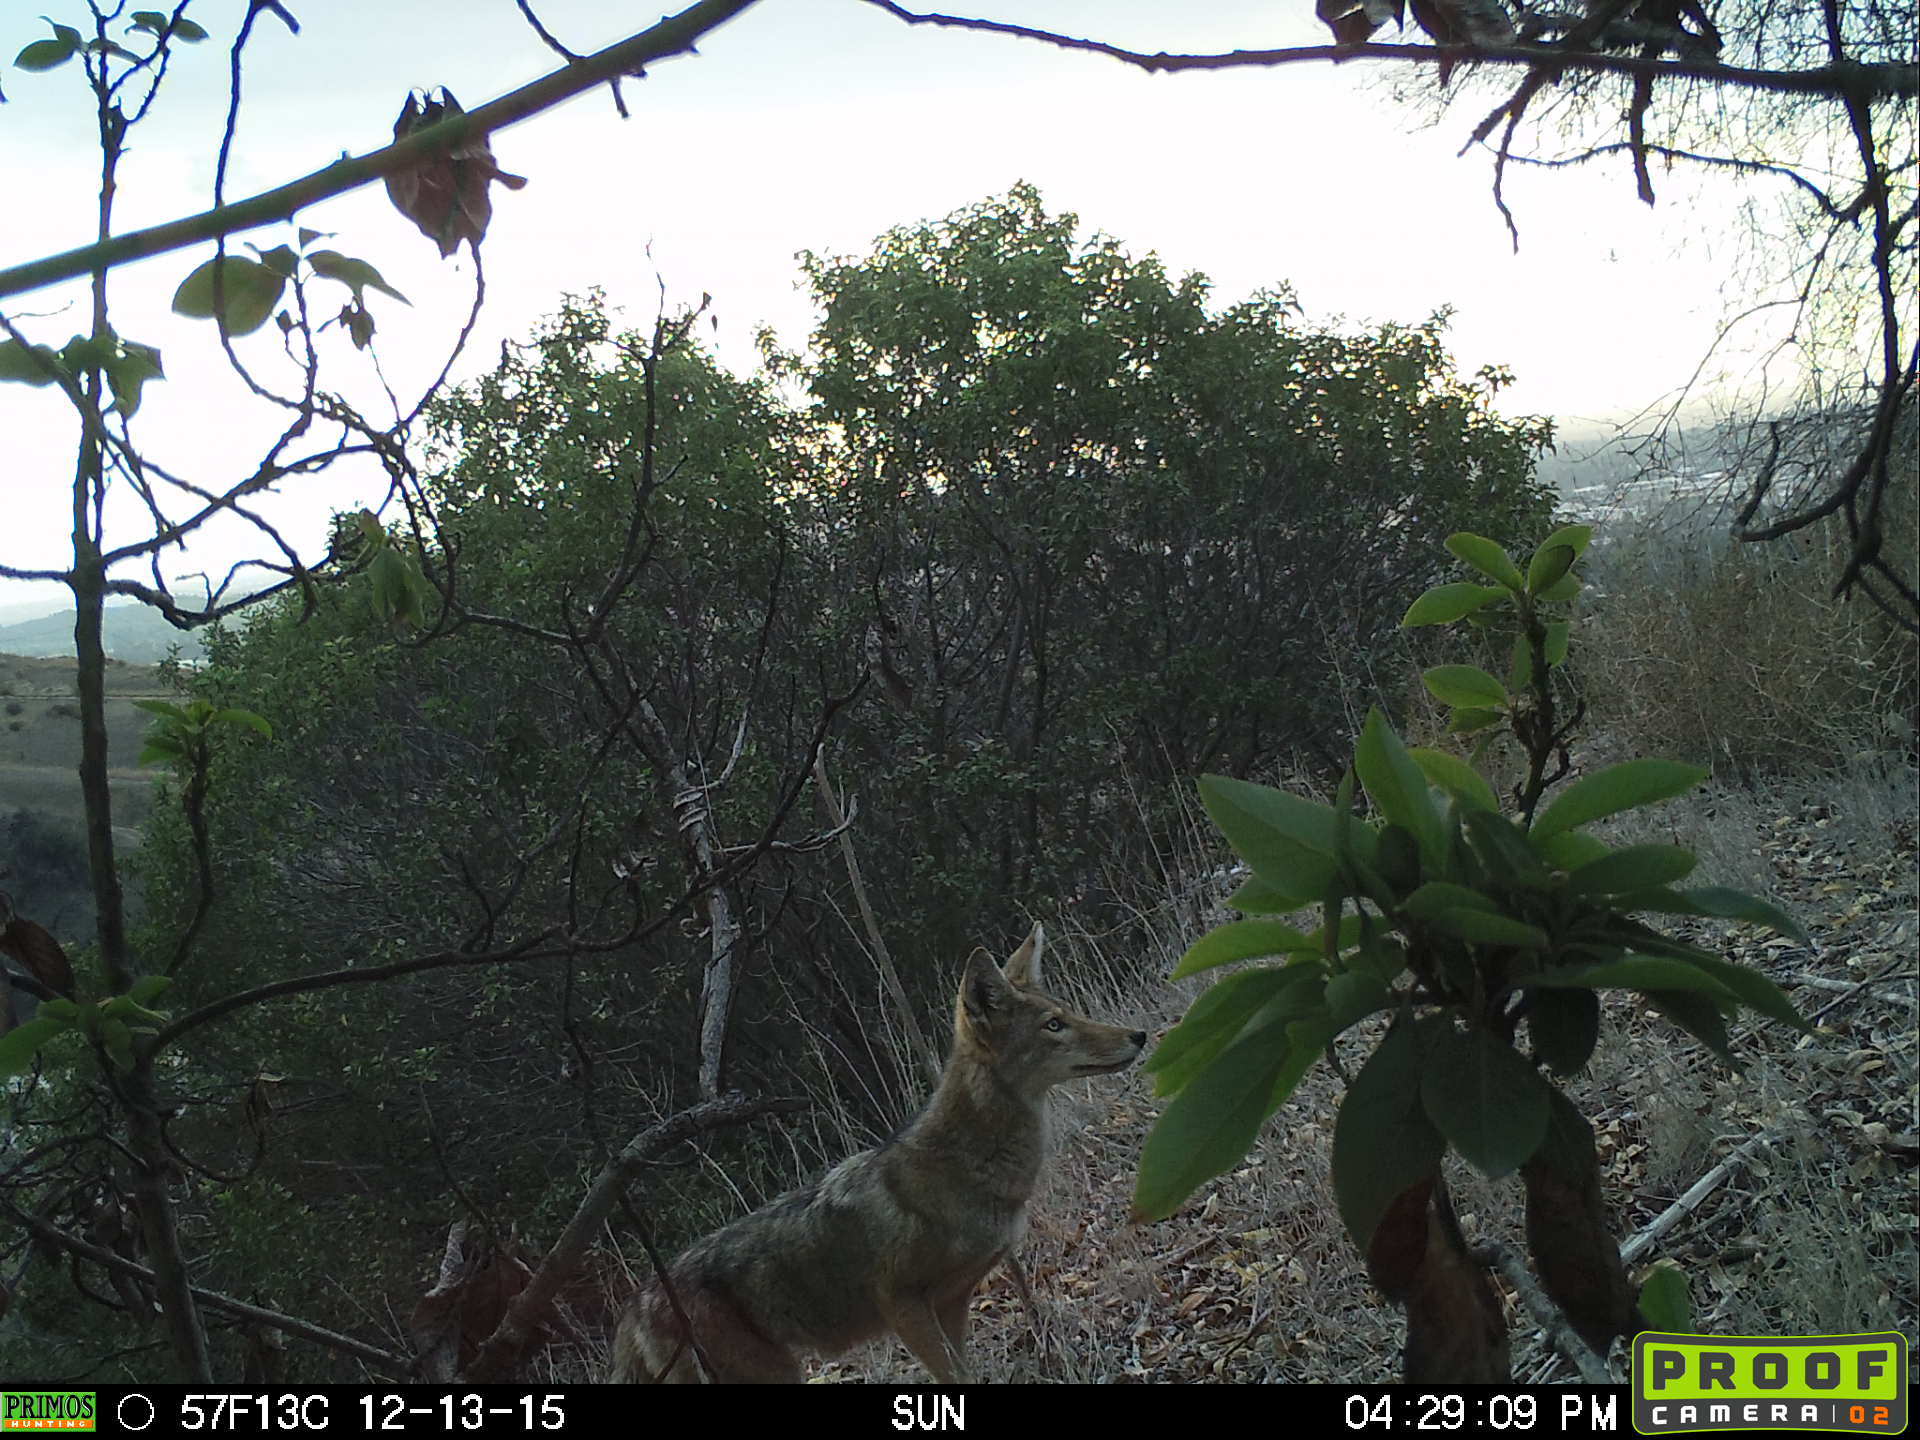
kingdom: Animalia
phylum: Chordata
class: Mammalia
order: Carnivora
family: Canidae
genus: Canis
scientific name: Canis latrans
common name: Coyote
